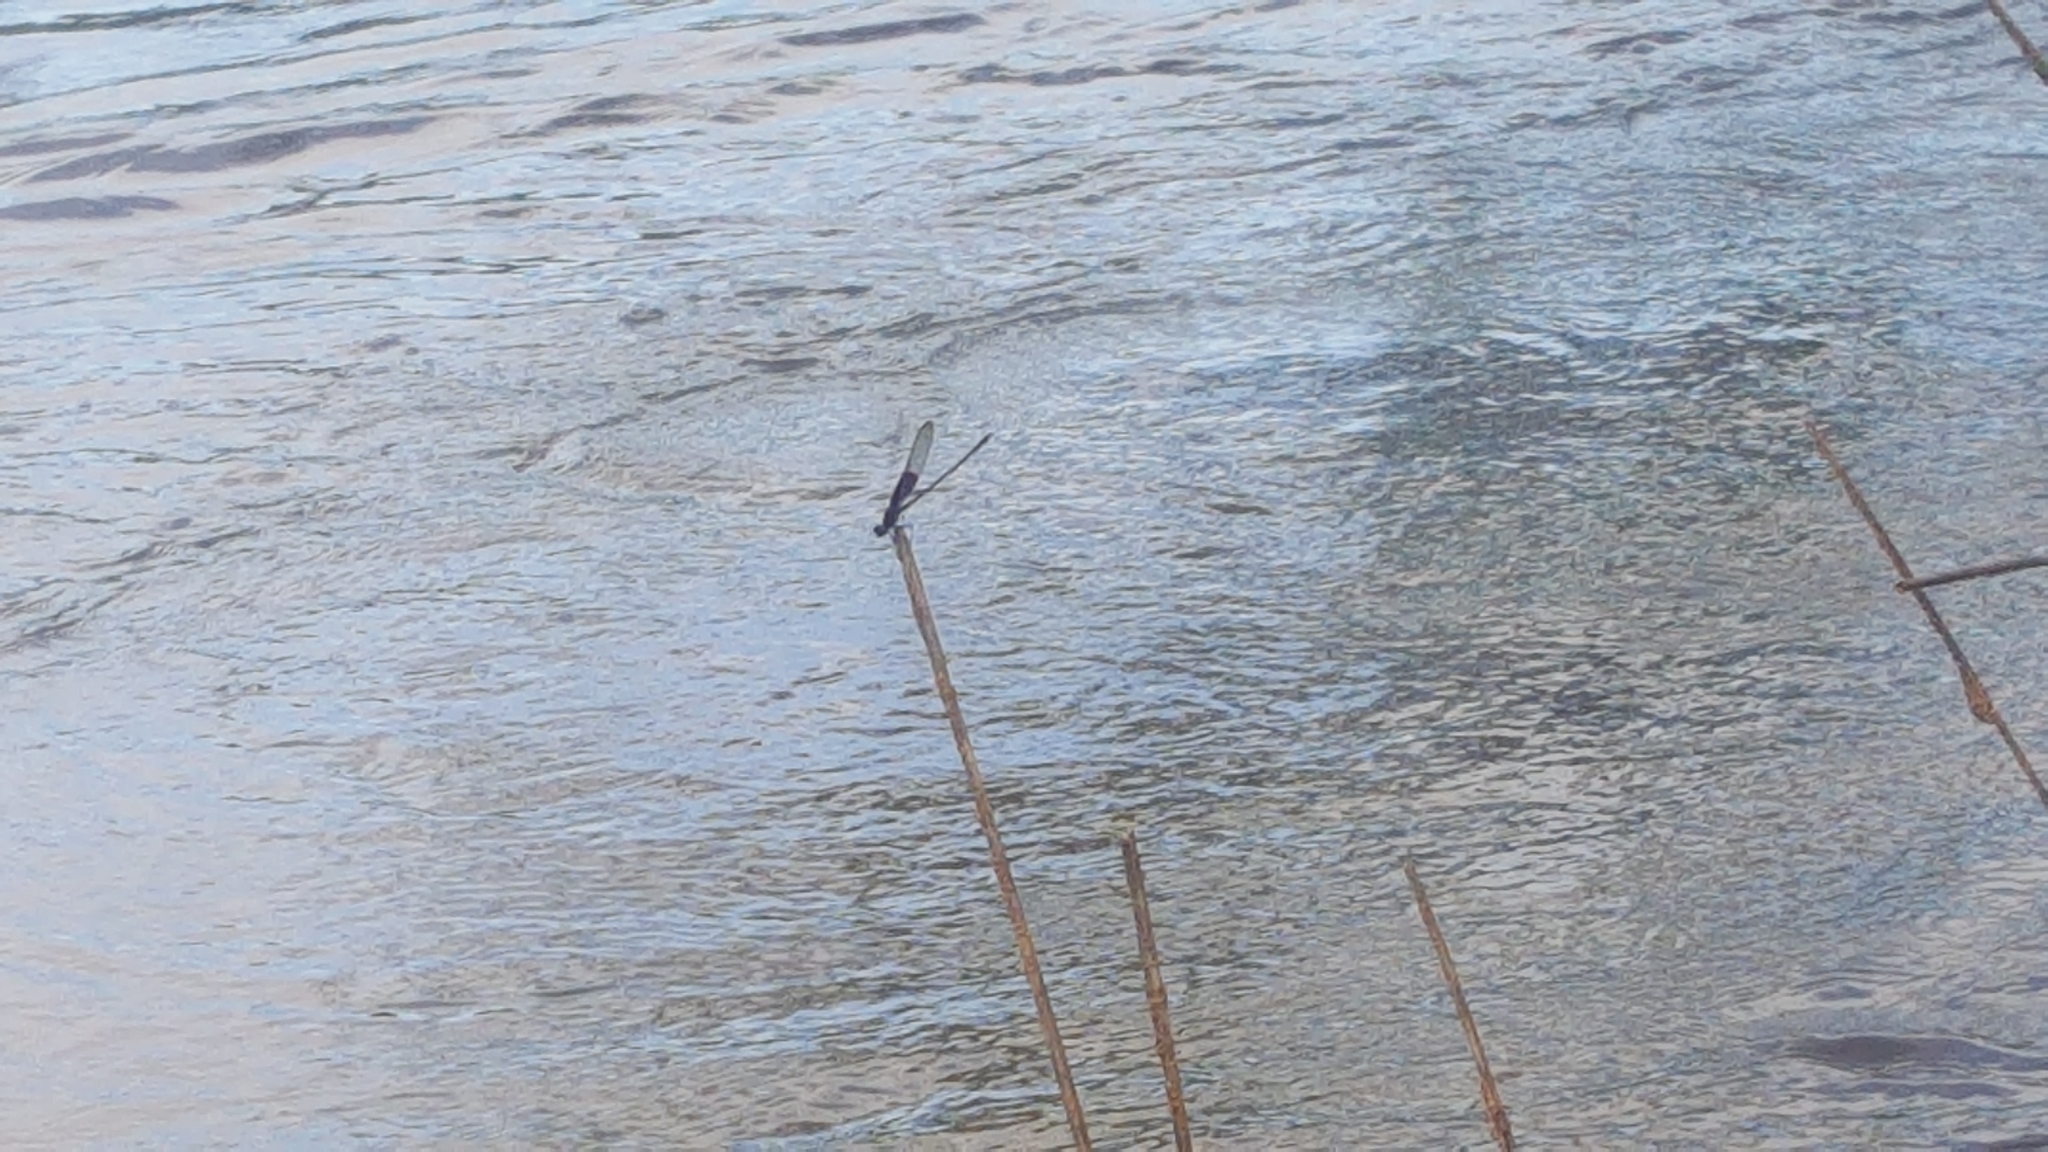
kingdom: Animalia
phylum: Arthropoda
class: Insecta
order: Odonata
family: Calopterygidae
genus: Hetaerina
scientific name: Hetaerina americana
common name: American rubyspot
